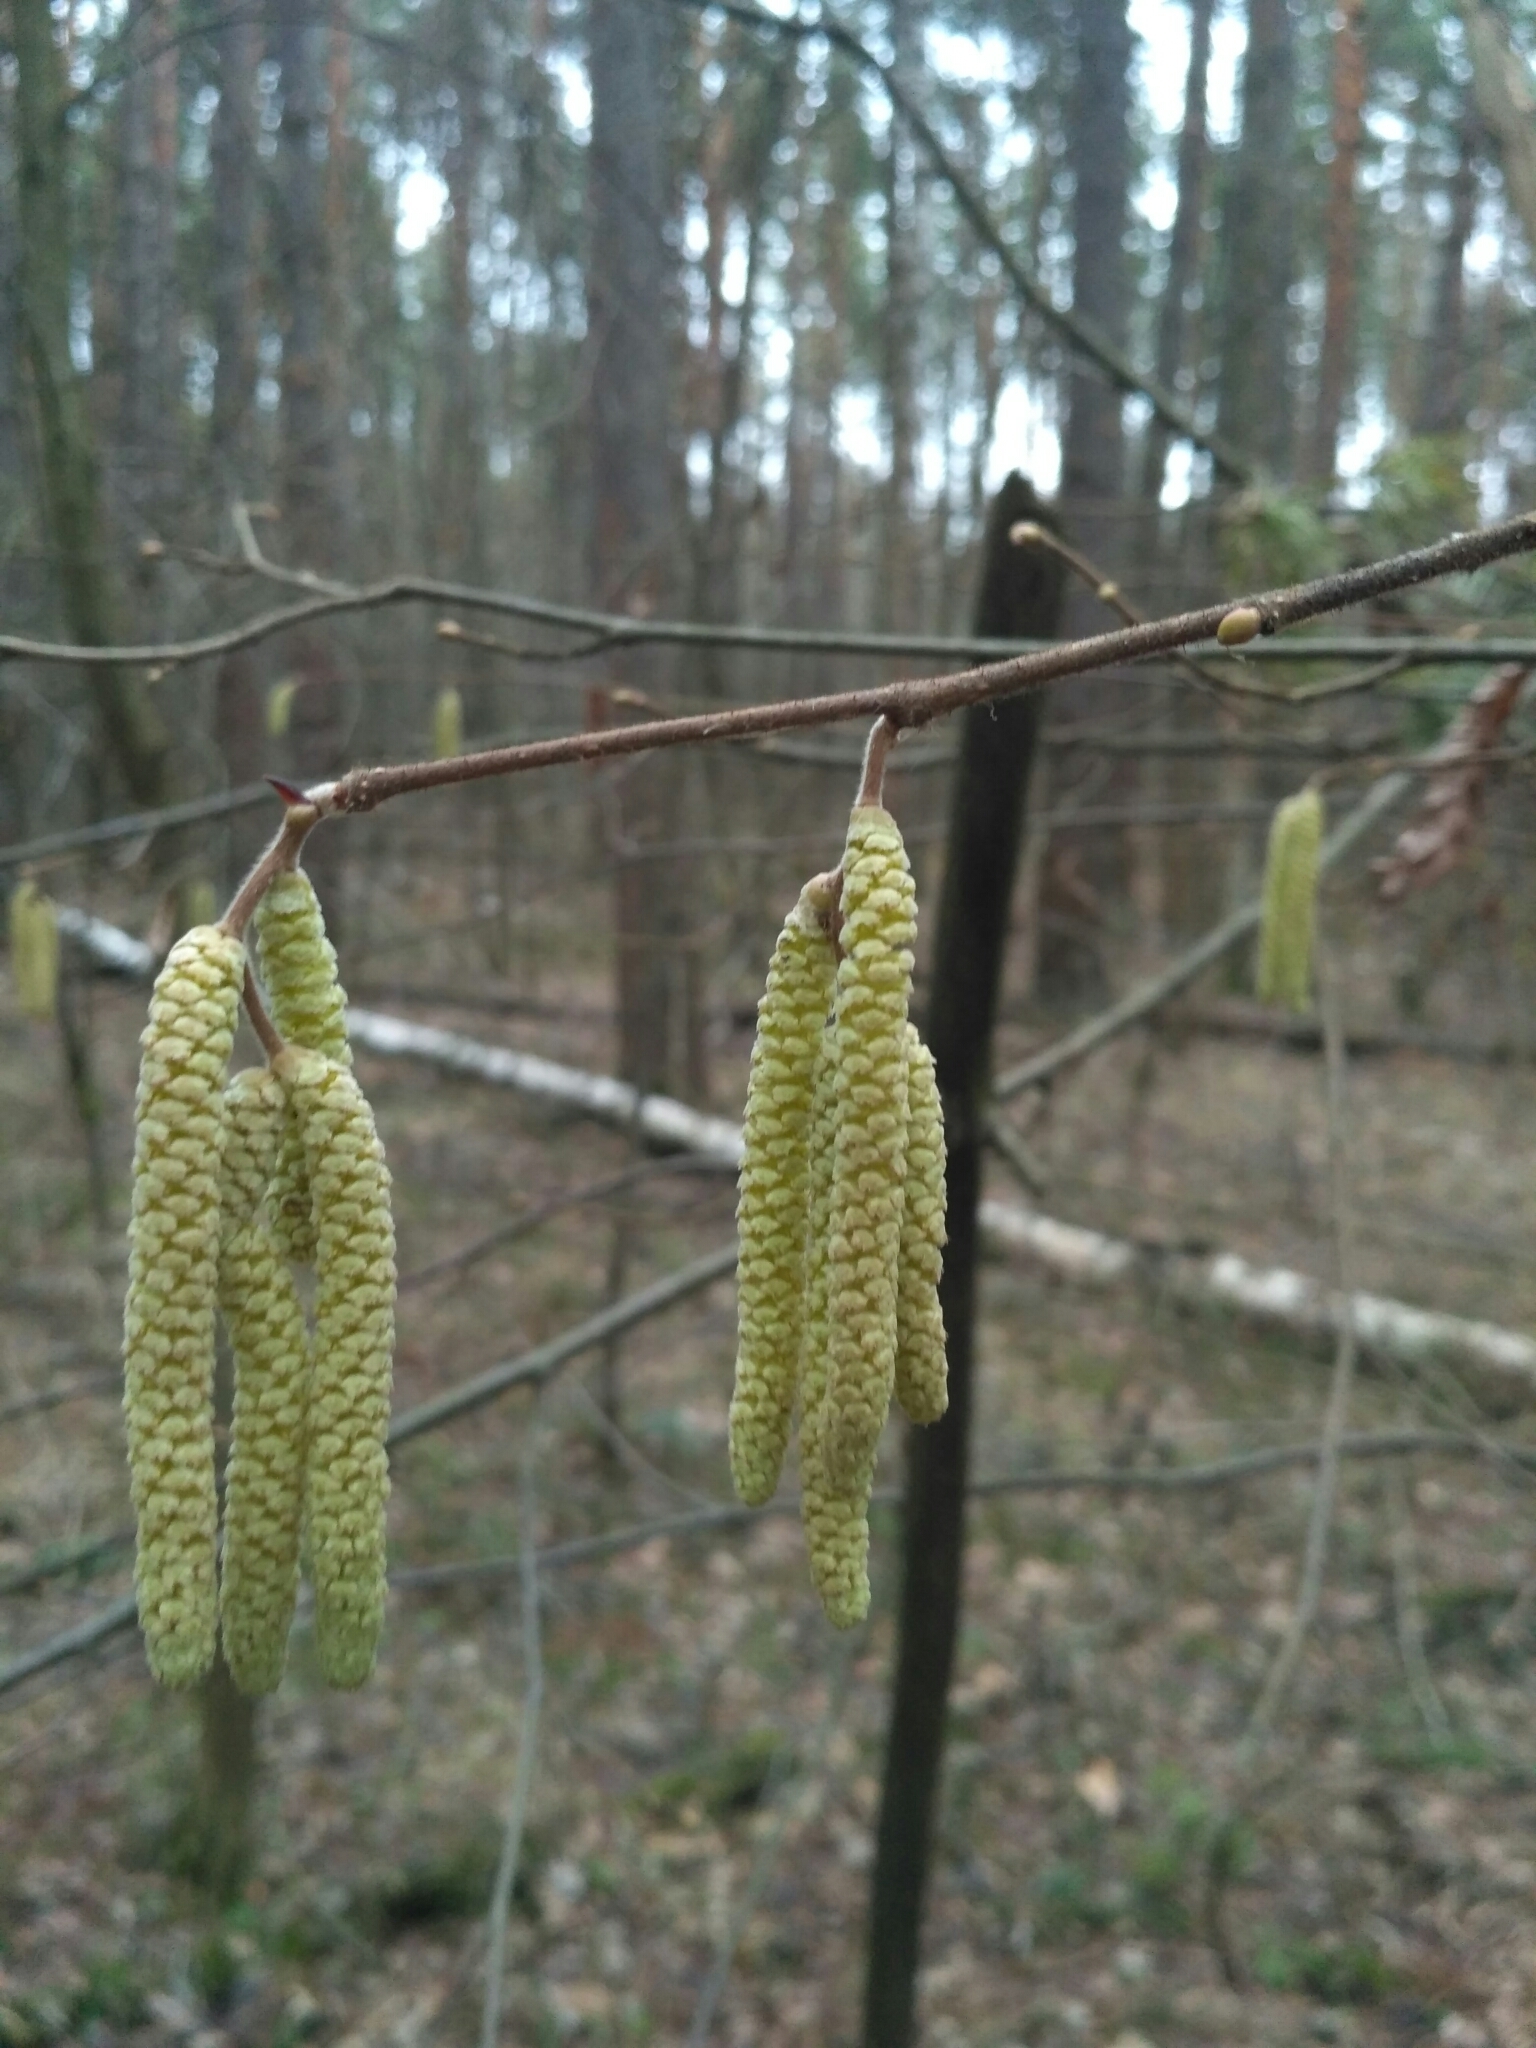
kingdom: Plantae
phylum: Tracheophyta
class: Magnoliopsida
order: Fagales
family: Betulaceae
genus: Corylus
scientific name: Corylus avellana
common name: European hazel
